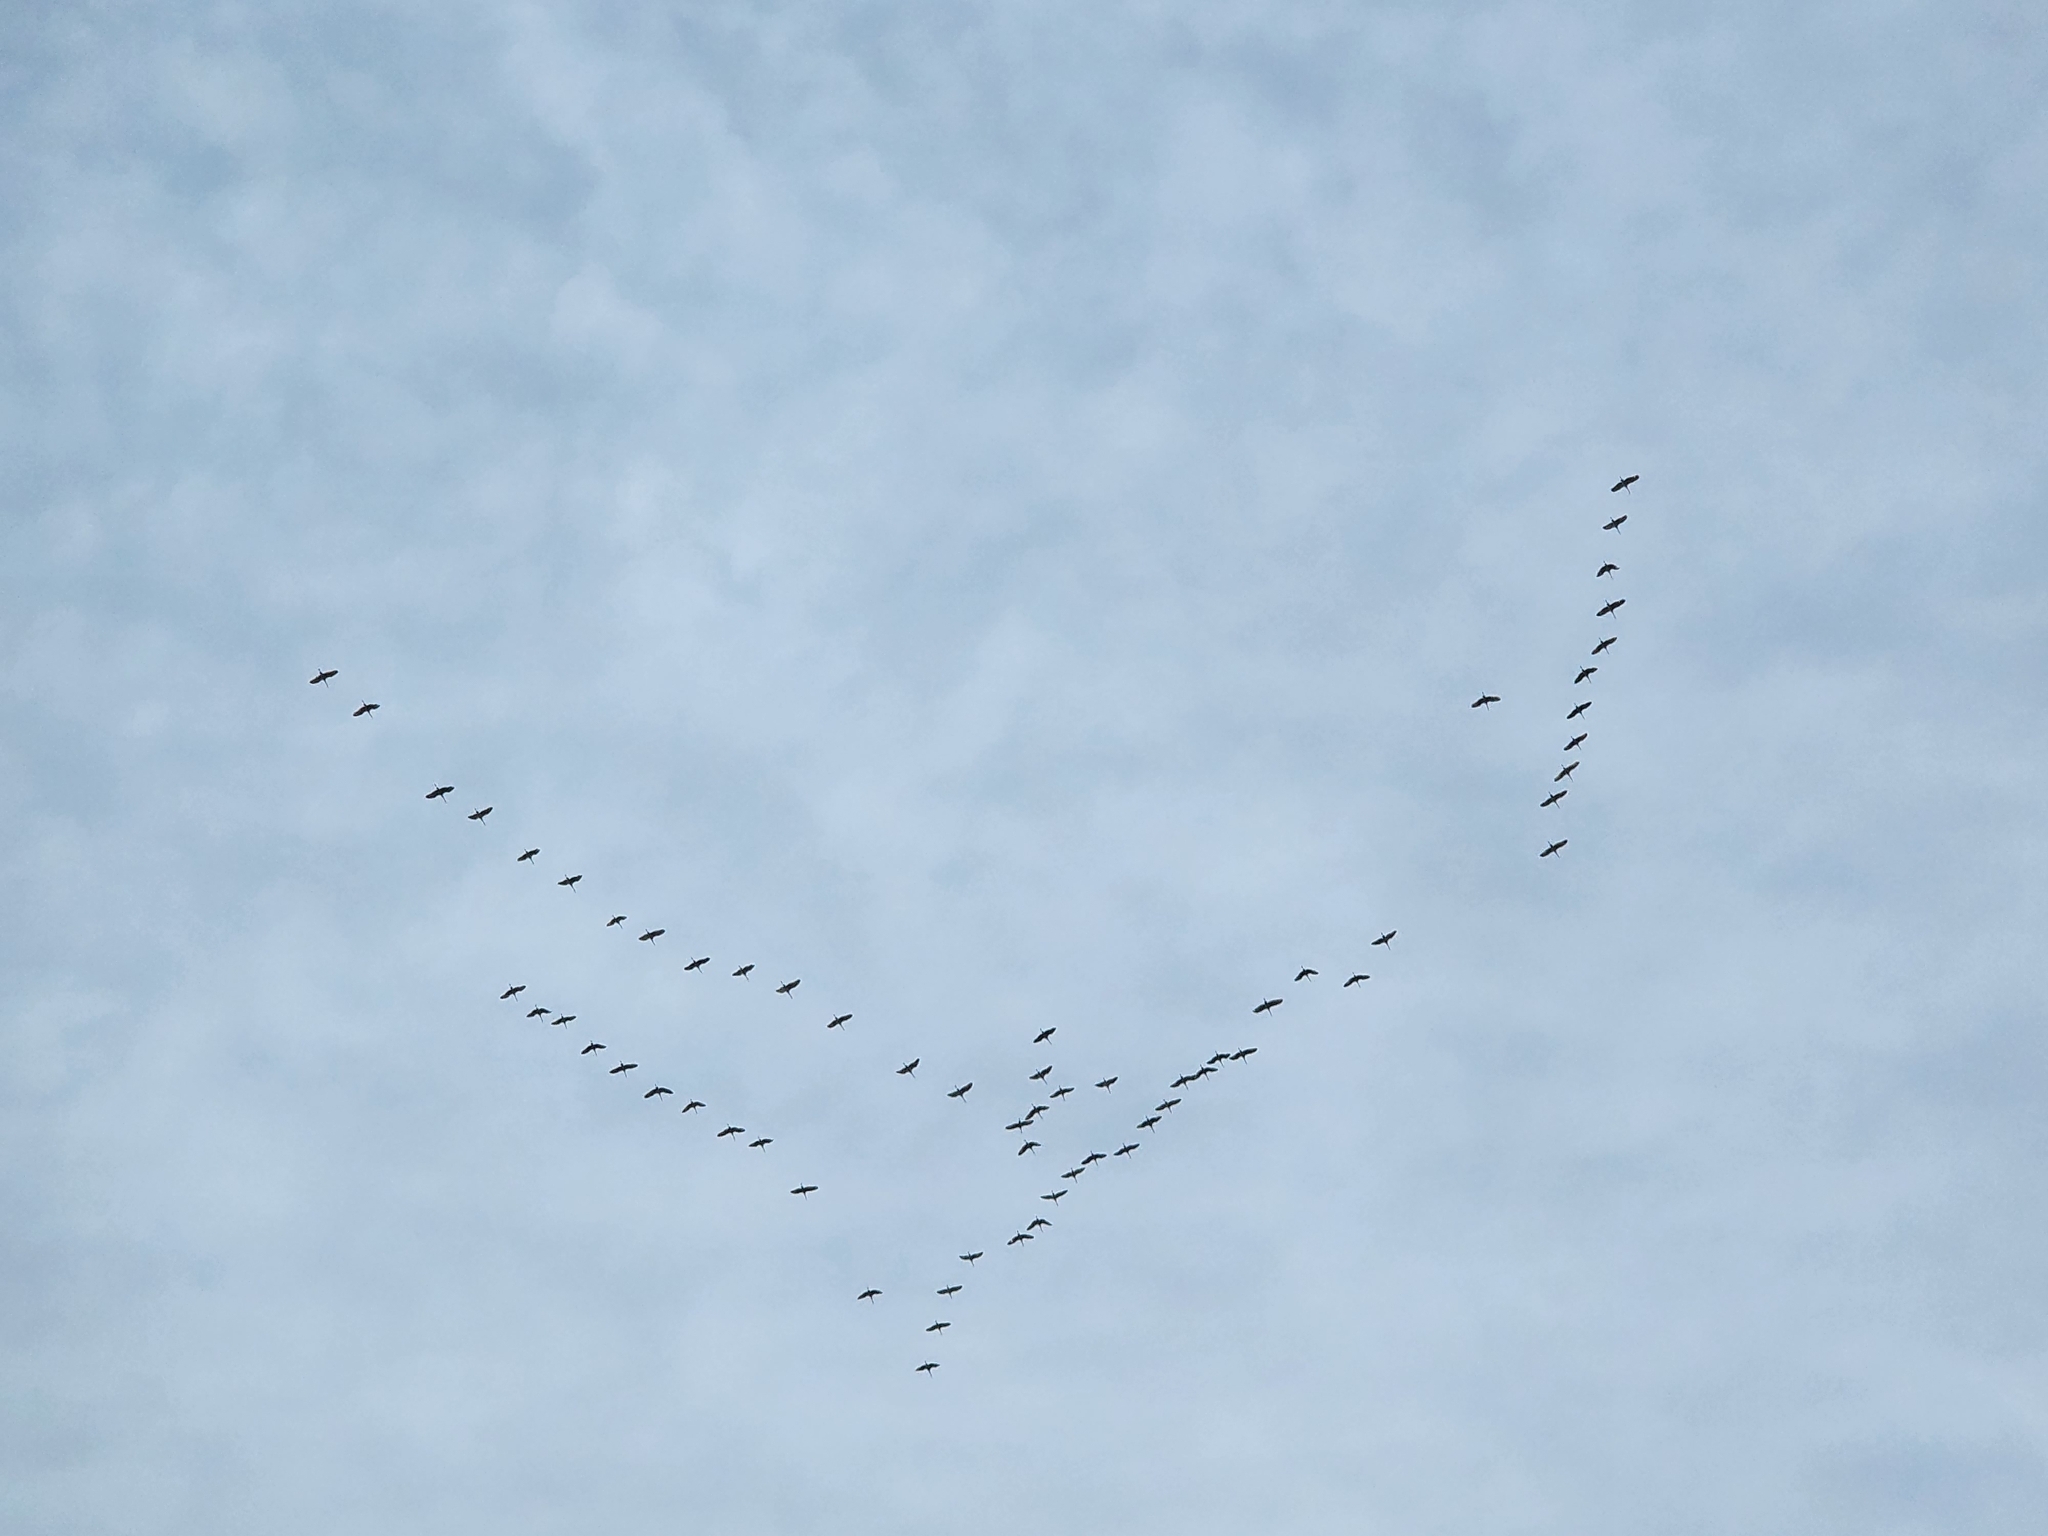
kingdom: Animalia
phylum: Chordata
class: Aves
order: Gruiformes
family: Gruidae
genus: Grus
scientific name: Grus canadensis
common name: Sandhill crane
